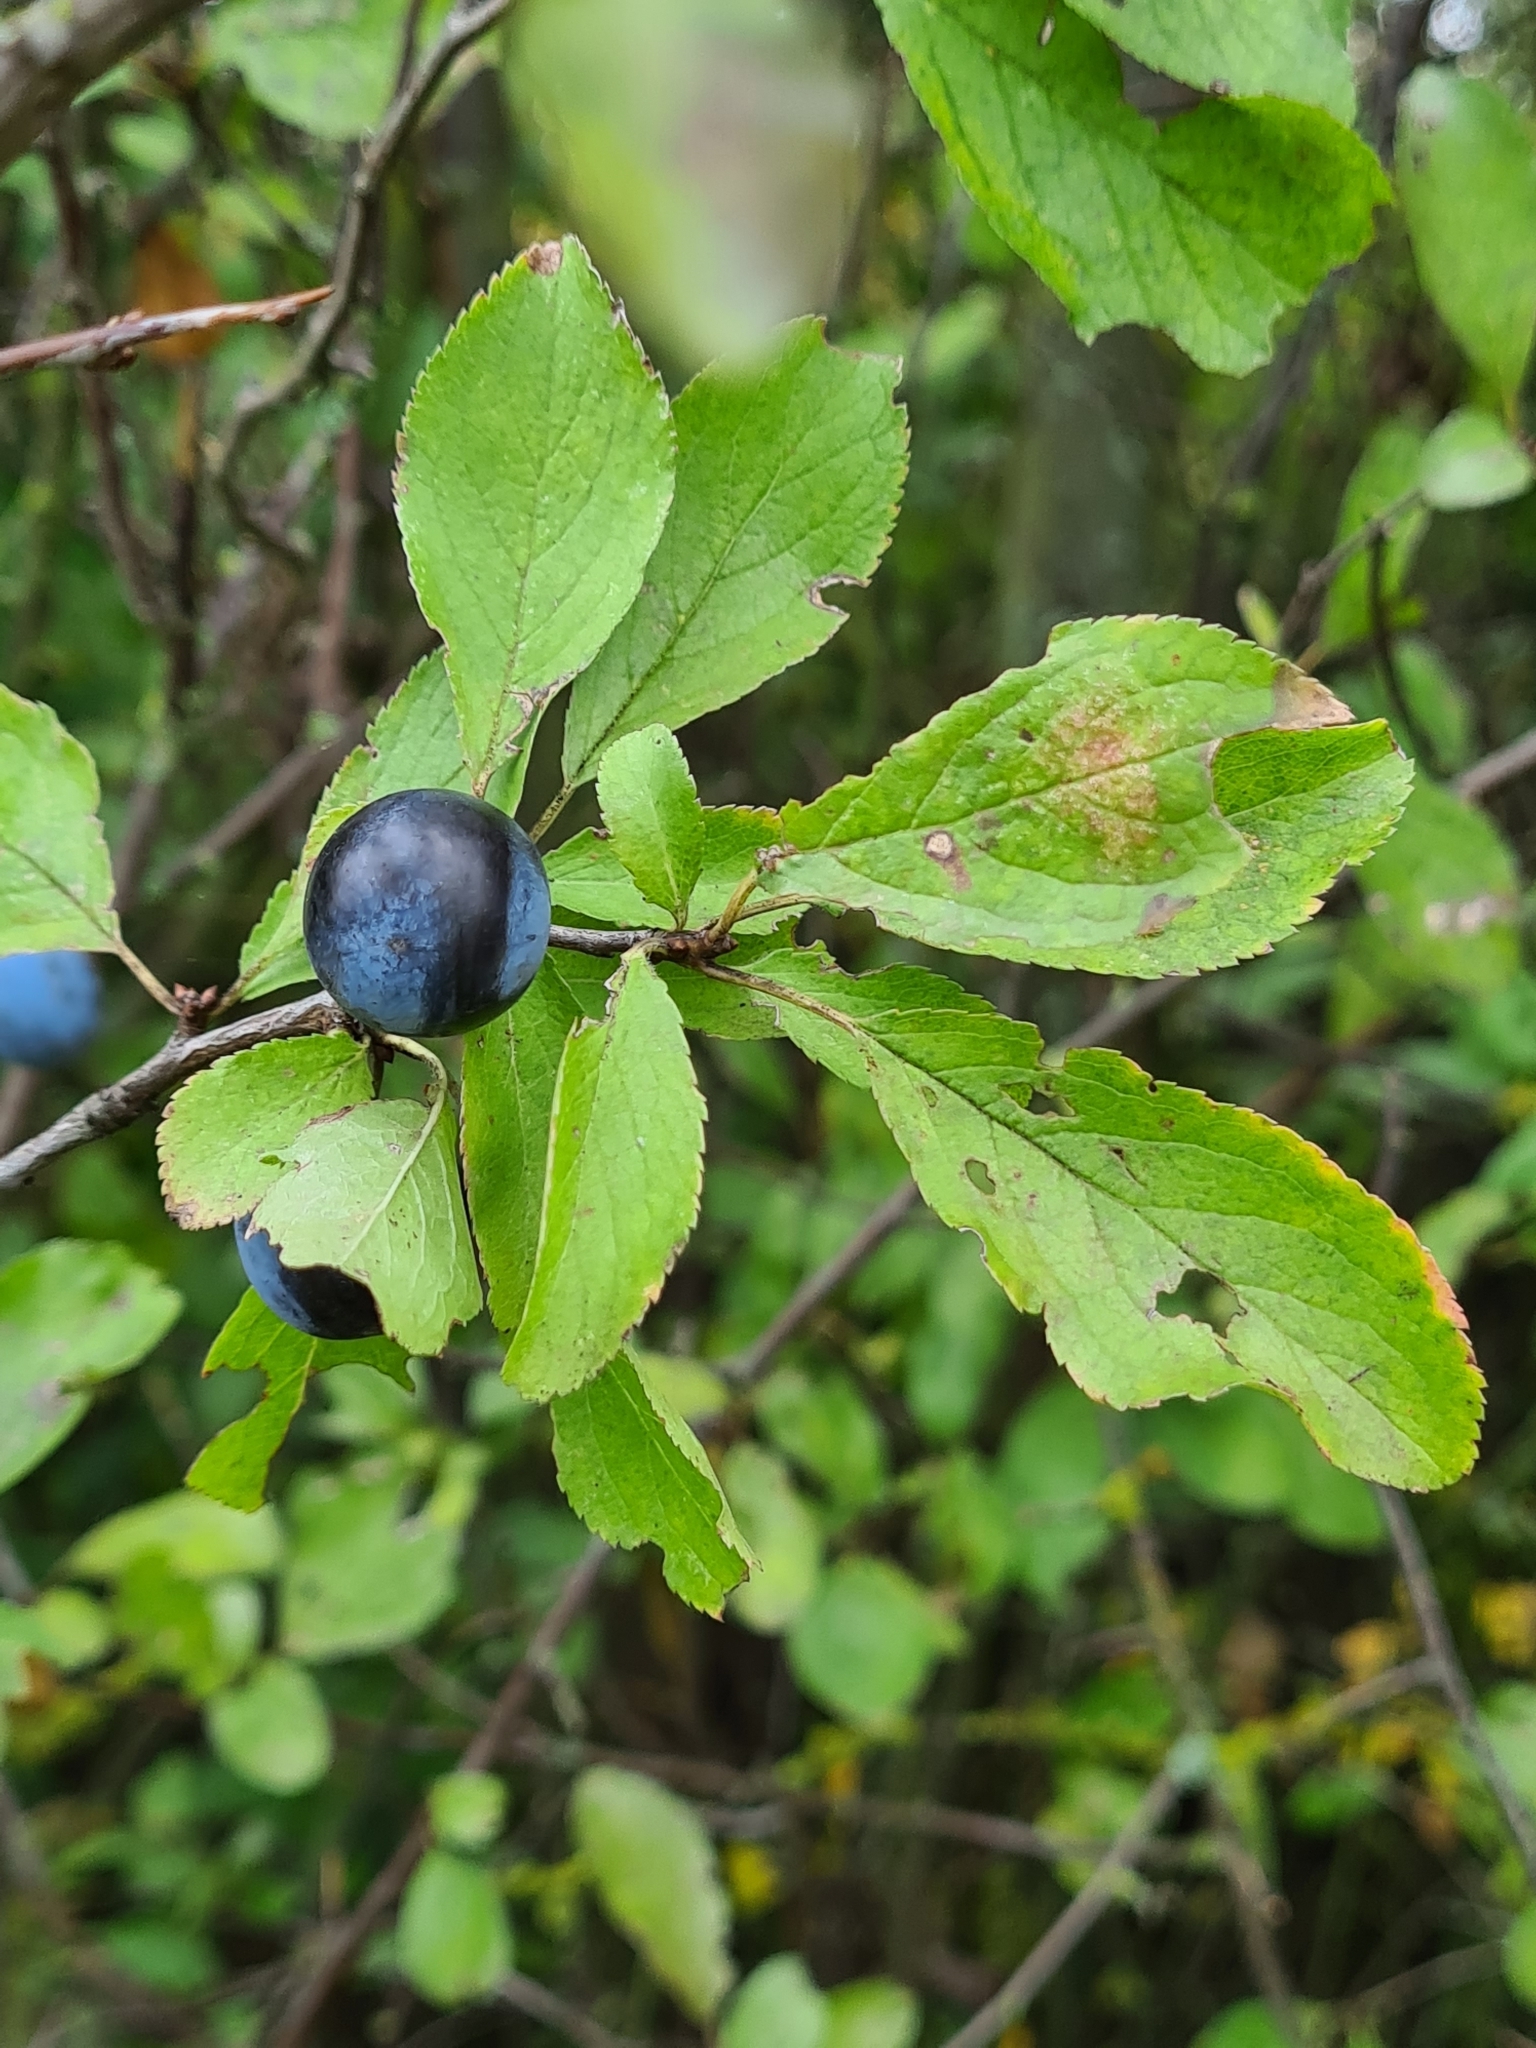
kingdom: Plantae
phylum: Tracheophyta
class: Magnoliopsida
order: Rosales
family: Rosaceae
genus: Prunus
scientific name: Prunus spinosa
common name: Blackthorn
